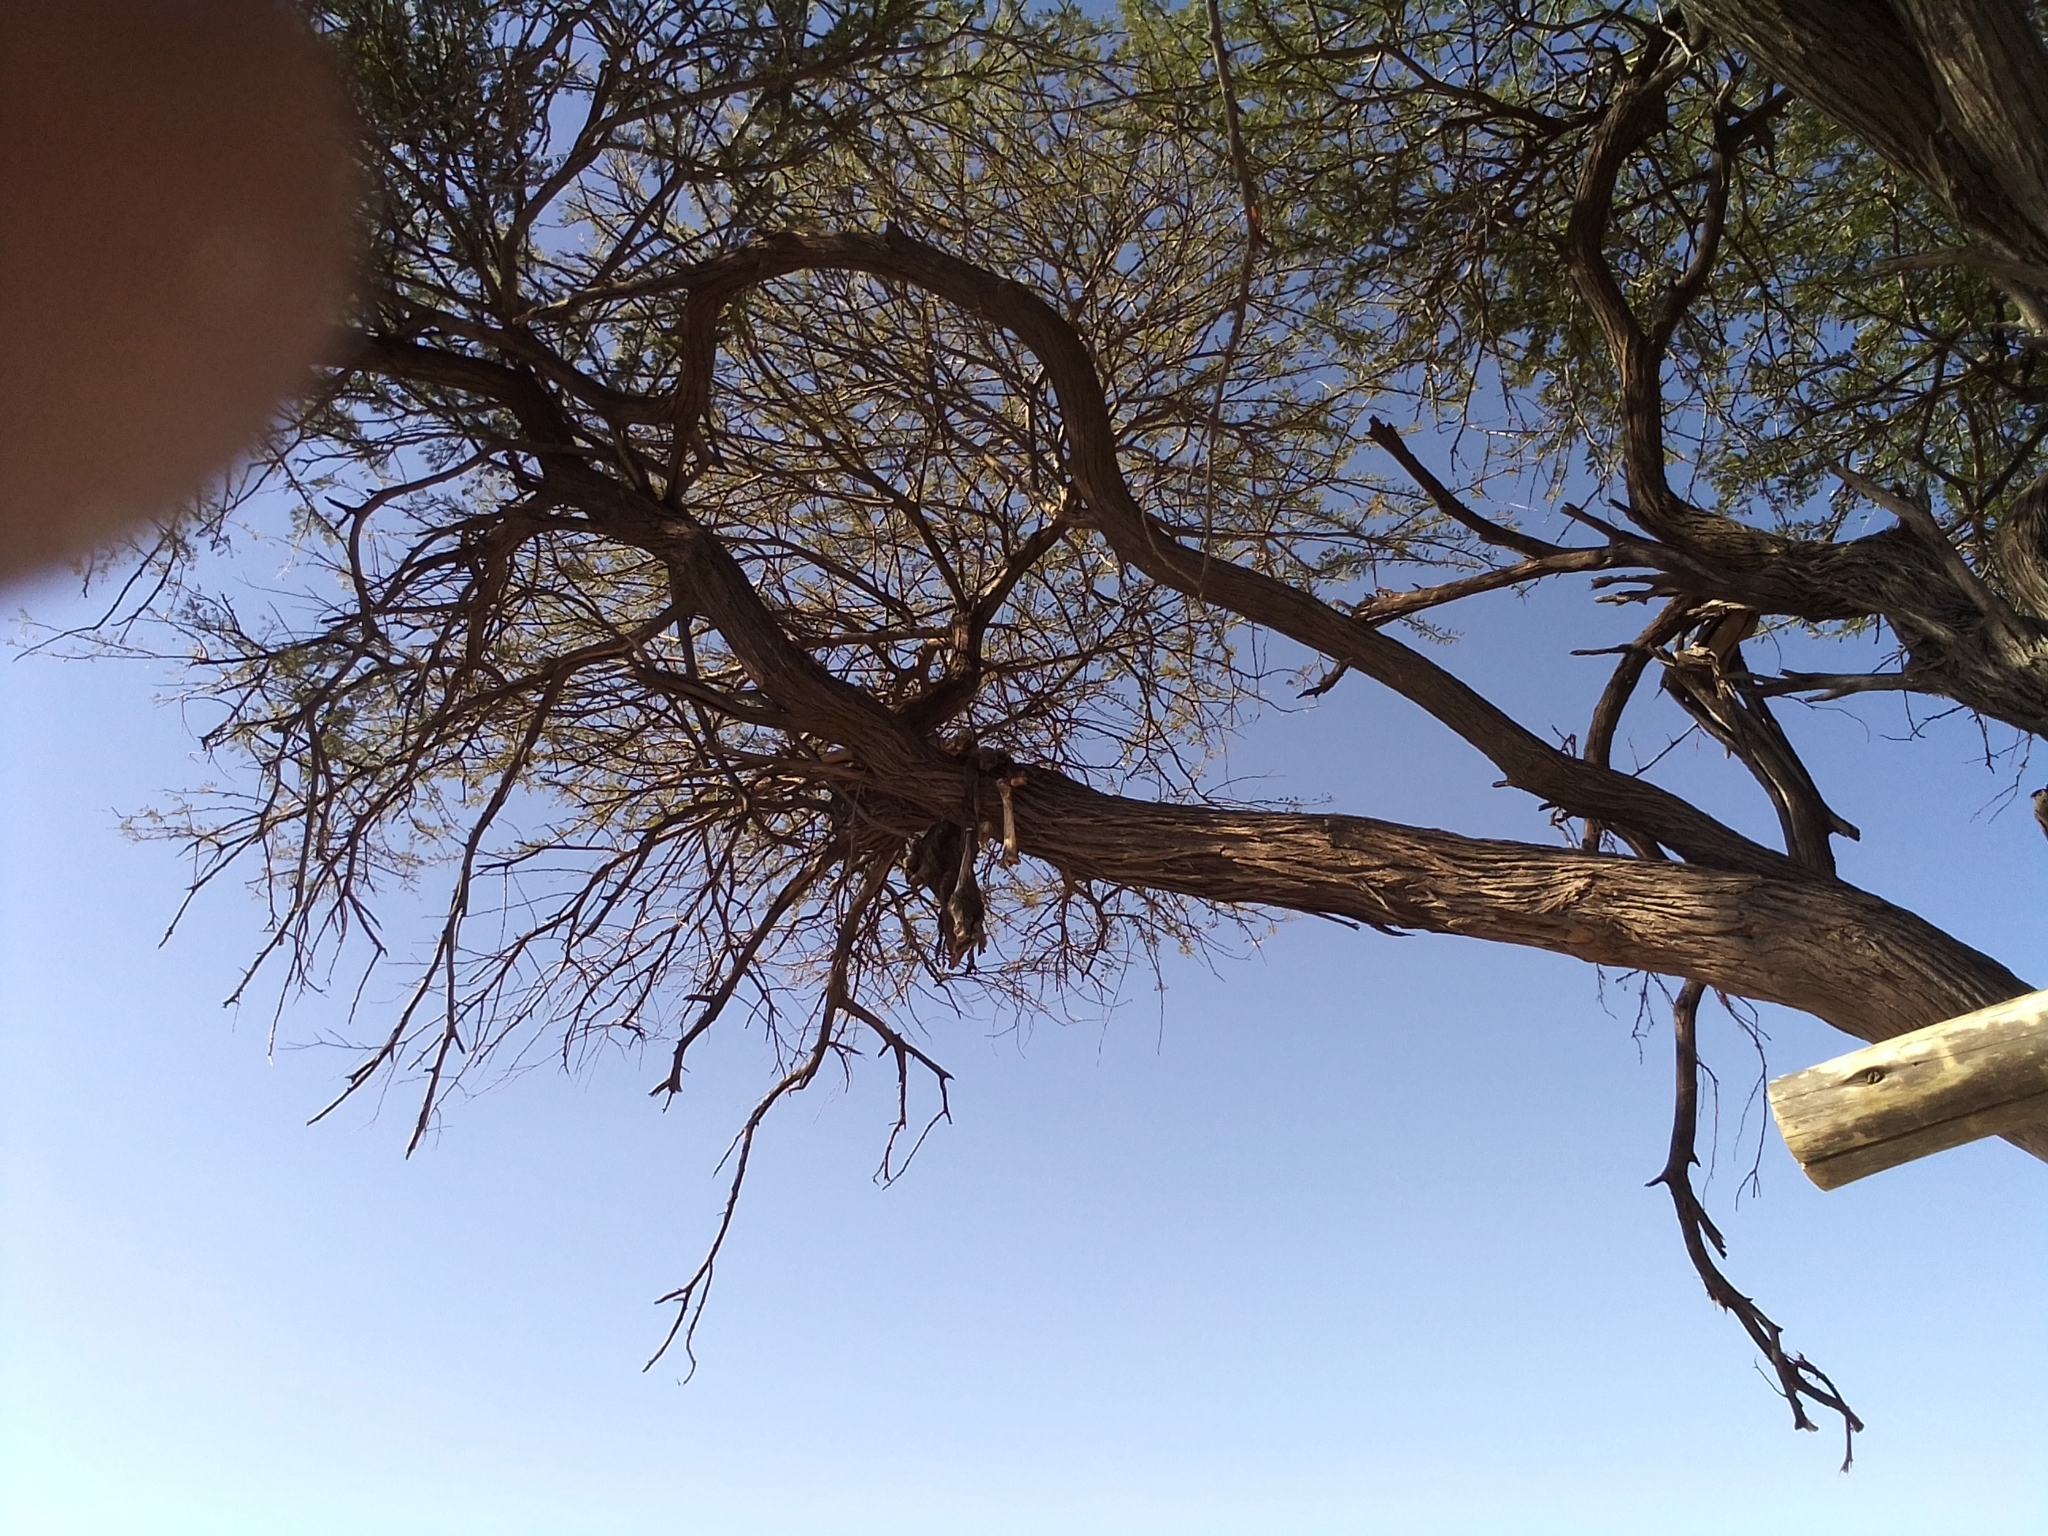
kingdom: Animalia
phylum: Chordata
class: Mammalia
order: Carnivora
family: Felidae
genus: Panthera
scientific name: Panthera pardus
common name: Leopard
